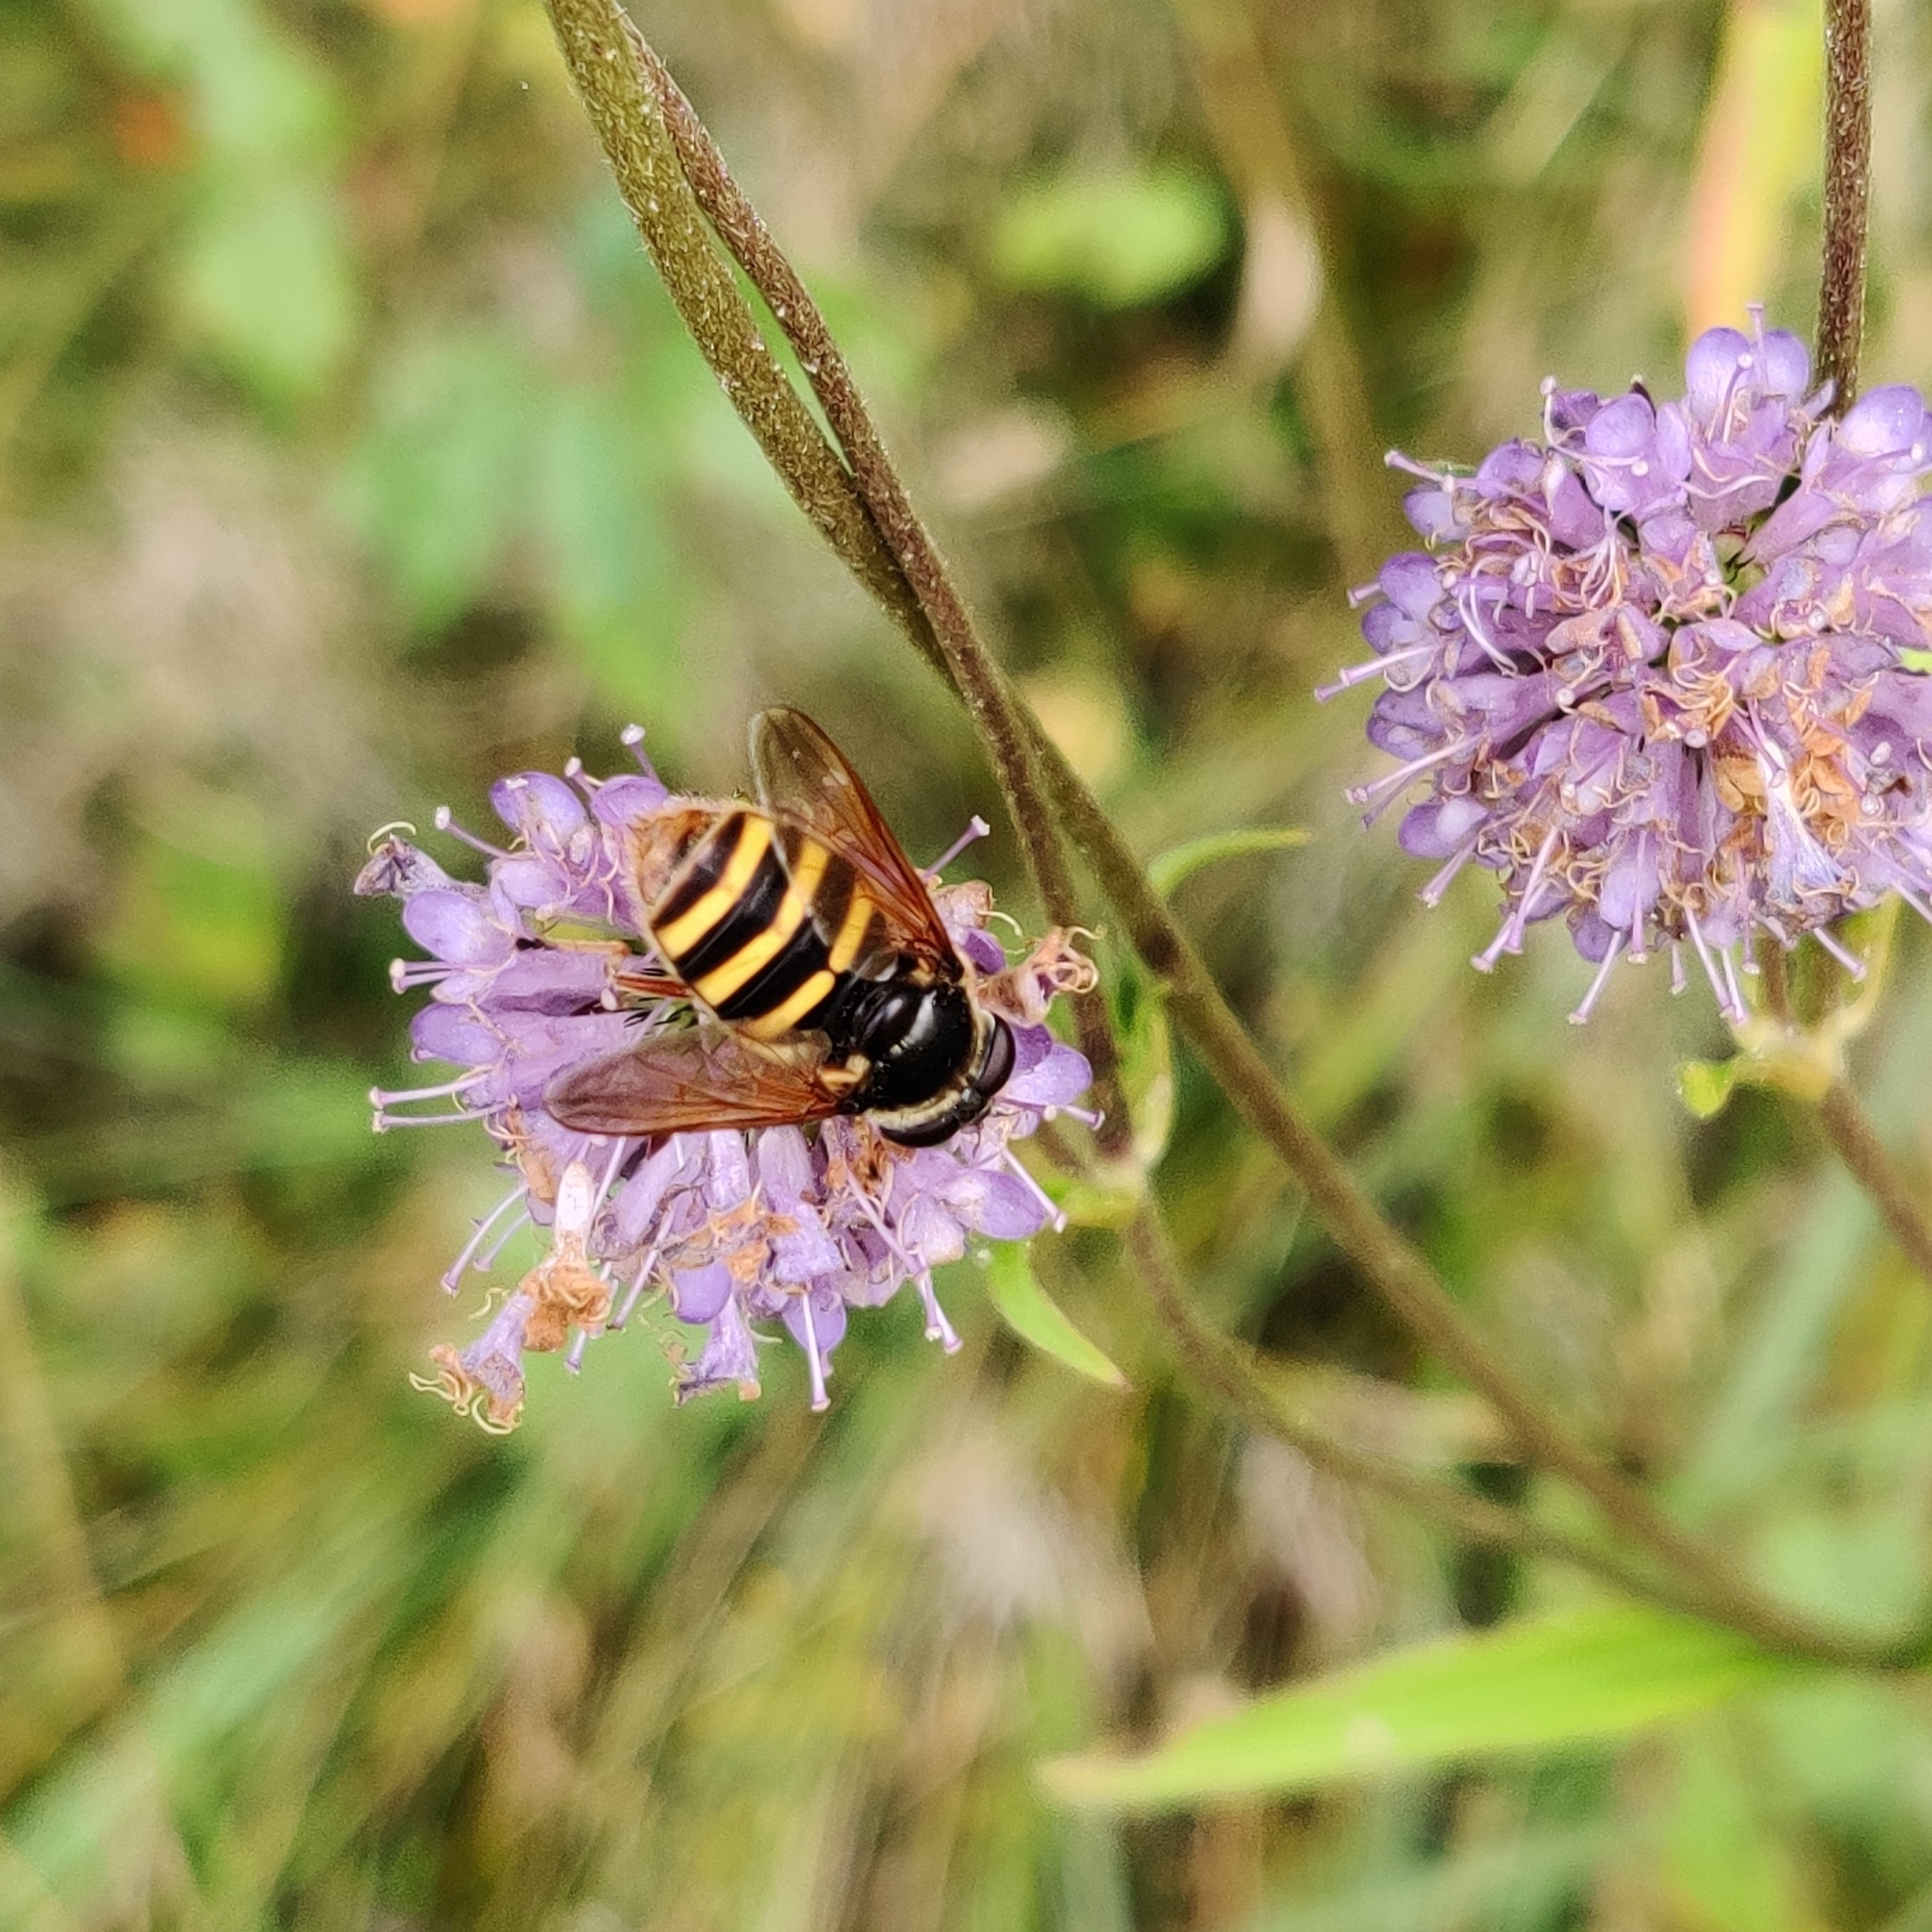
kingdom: Animalia
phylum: Arthropoda
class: Insecta
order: Diptera
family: Syrphidae
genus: Sericomyia
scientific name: Sericomyia silentis
